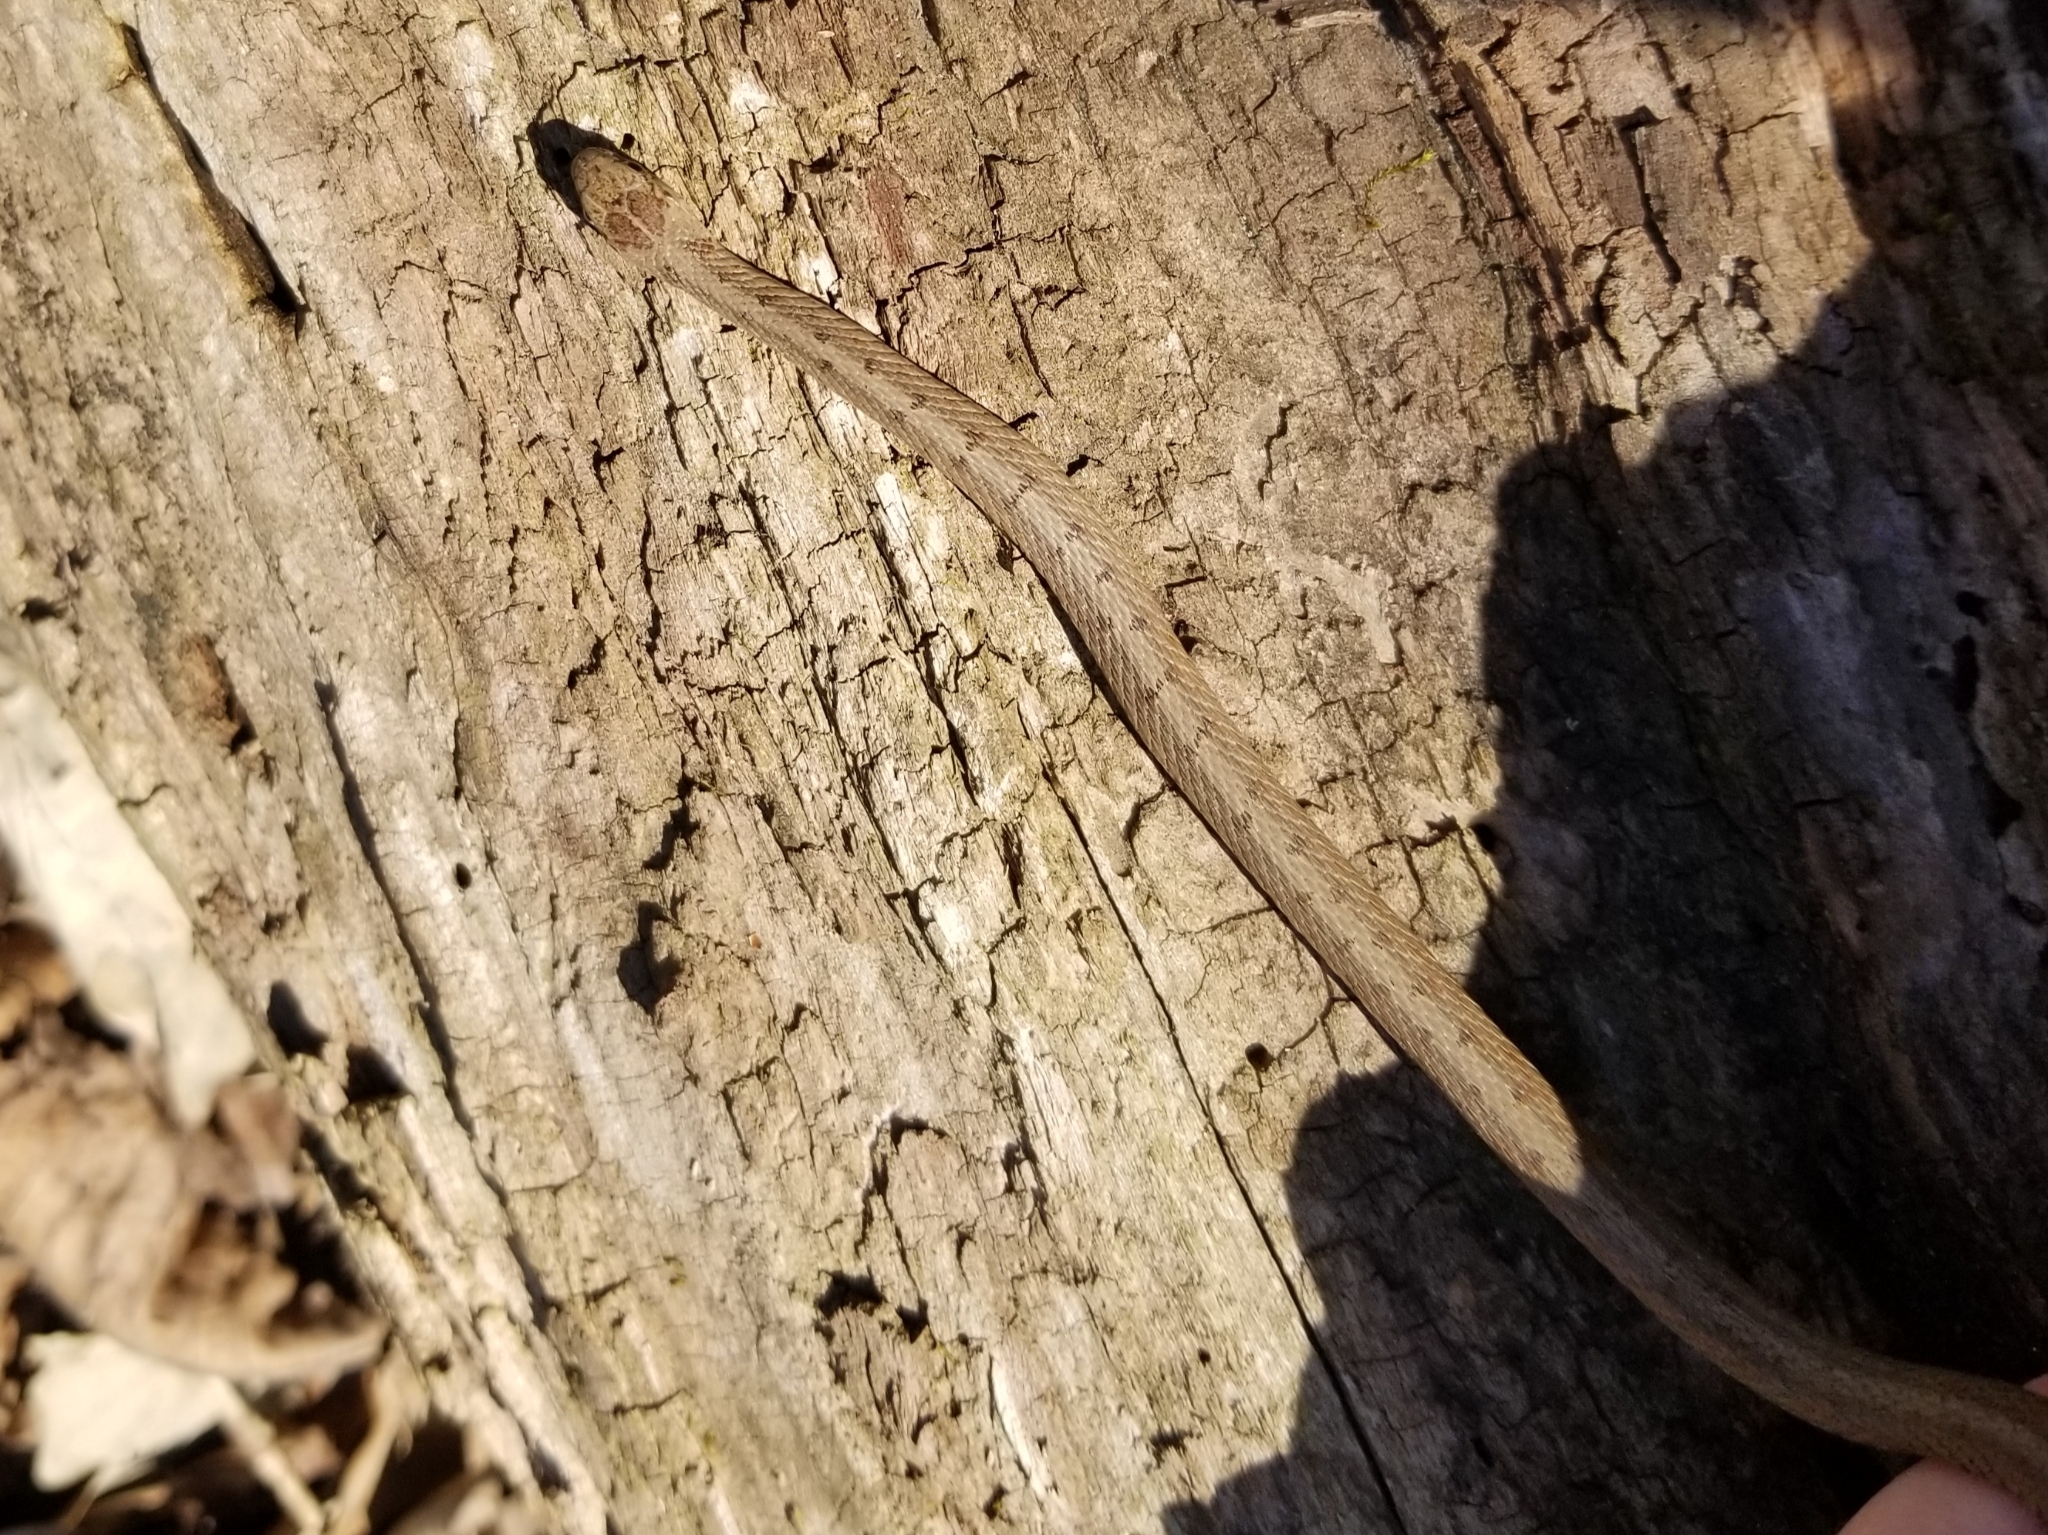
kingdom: Animalia
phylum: Chordata
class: Squamata
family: Colubridae
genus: Storeria
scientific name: Storeria dekayi
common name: (dekay’s) brown snake
